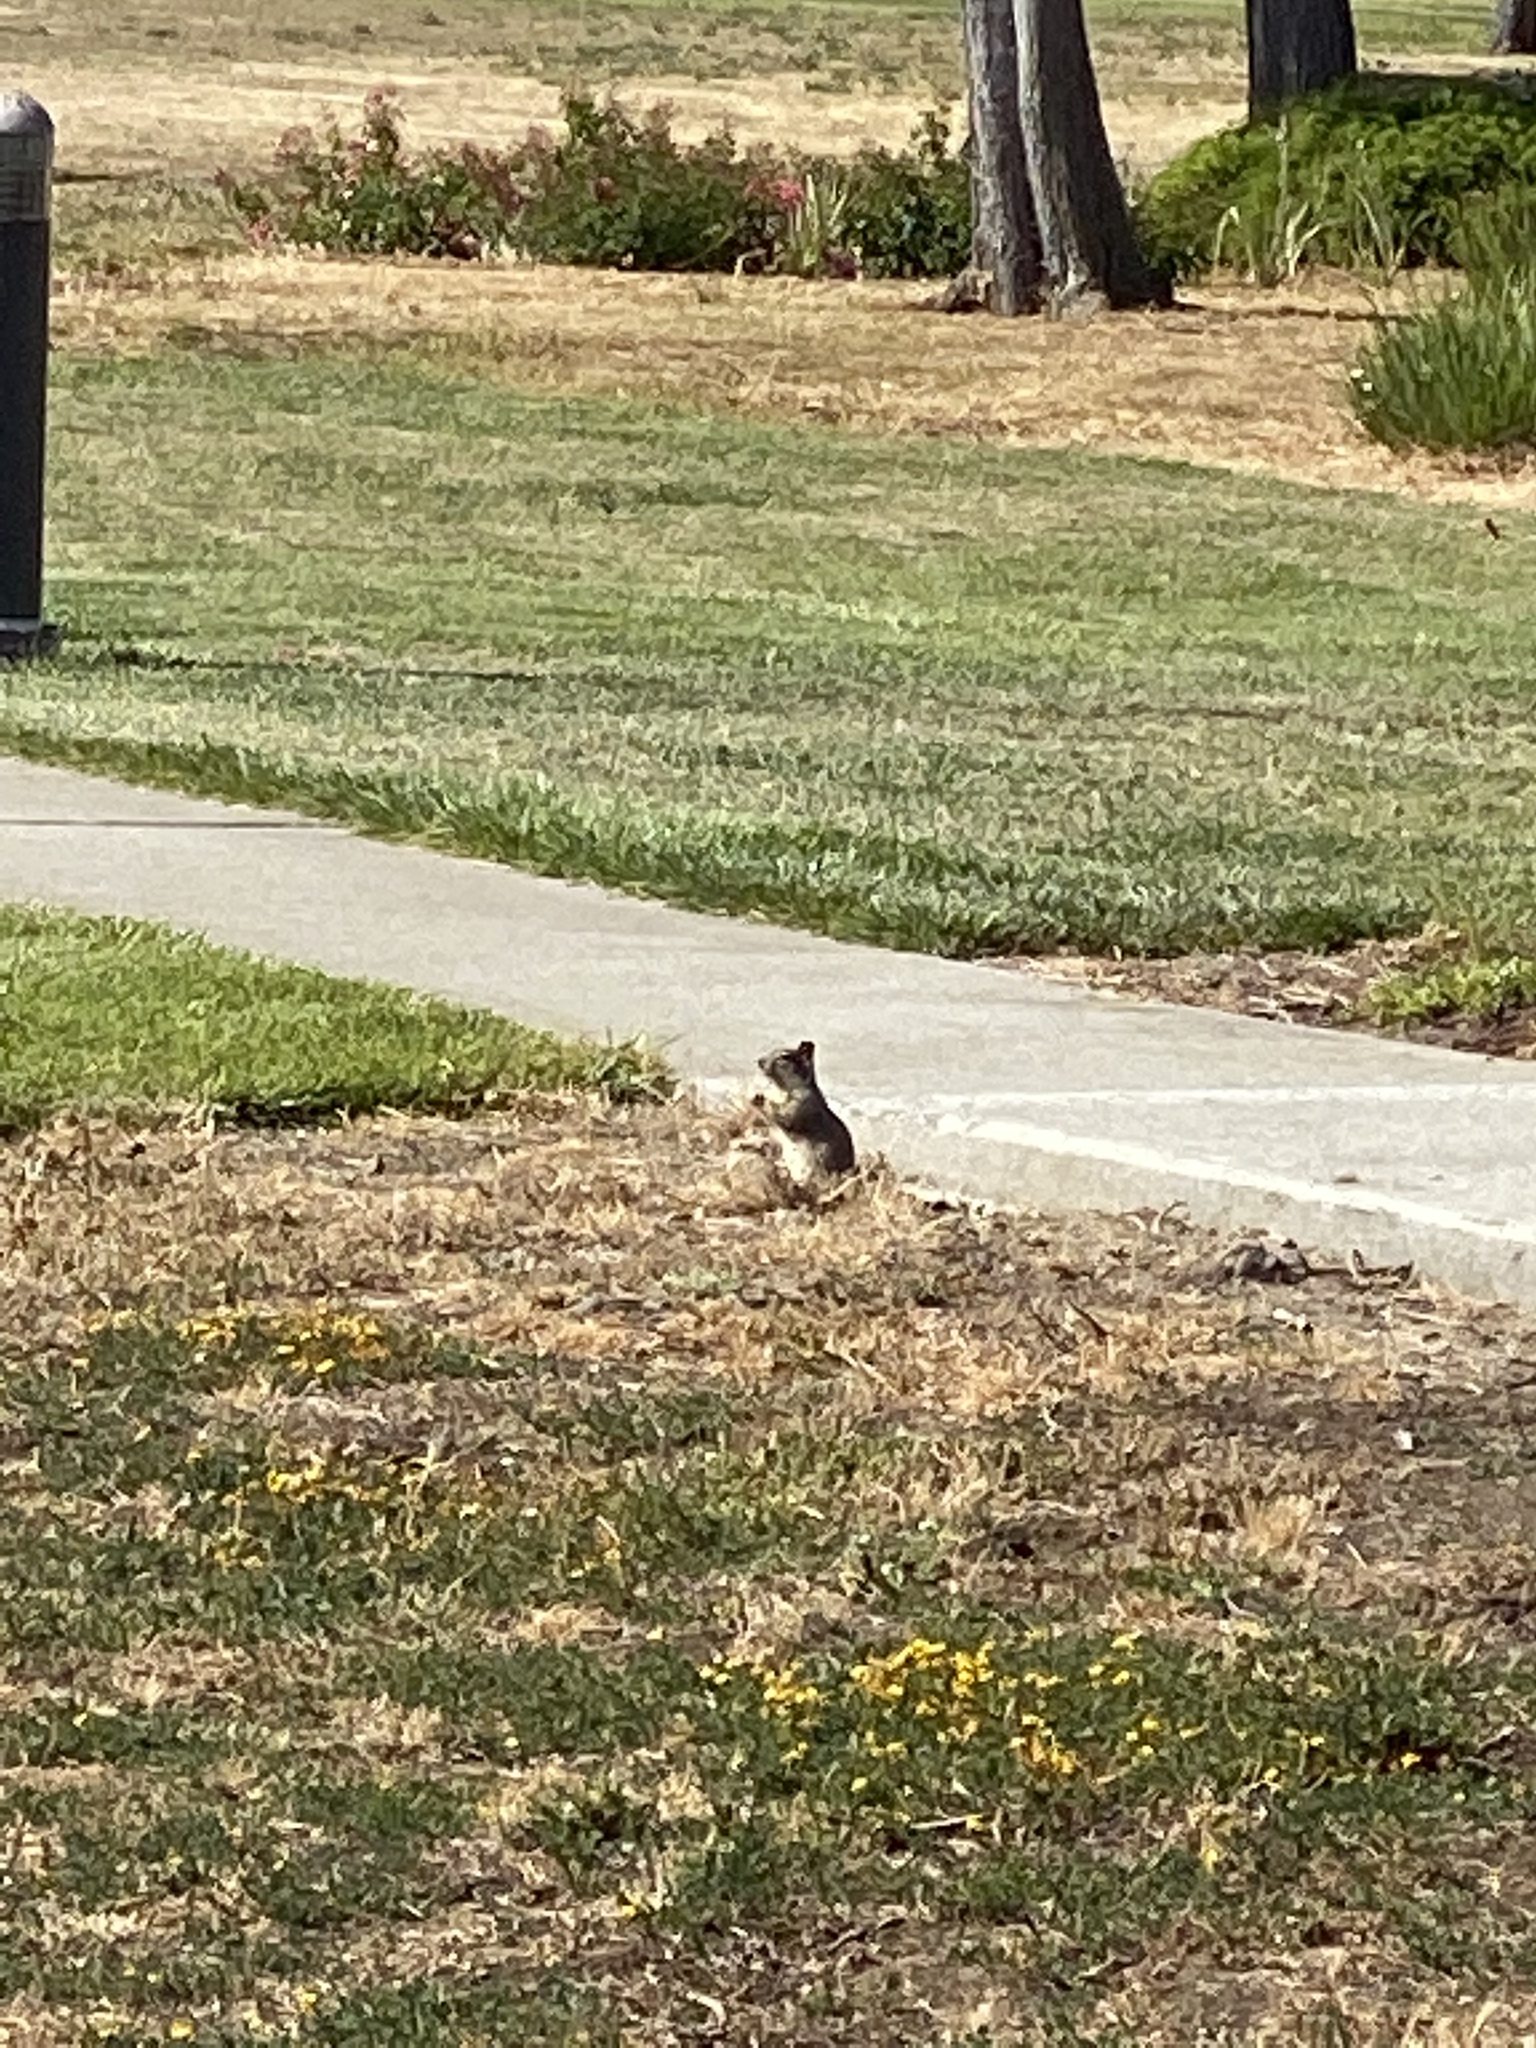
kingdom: Animalia
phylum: Chordata
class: Mammalia
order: Rodentia
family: Sciuridae
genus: Otospermophilus
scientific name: Otospermophilus beecheyi
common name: California ground squirrel
